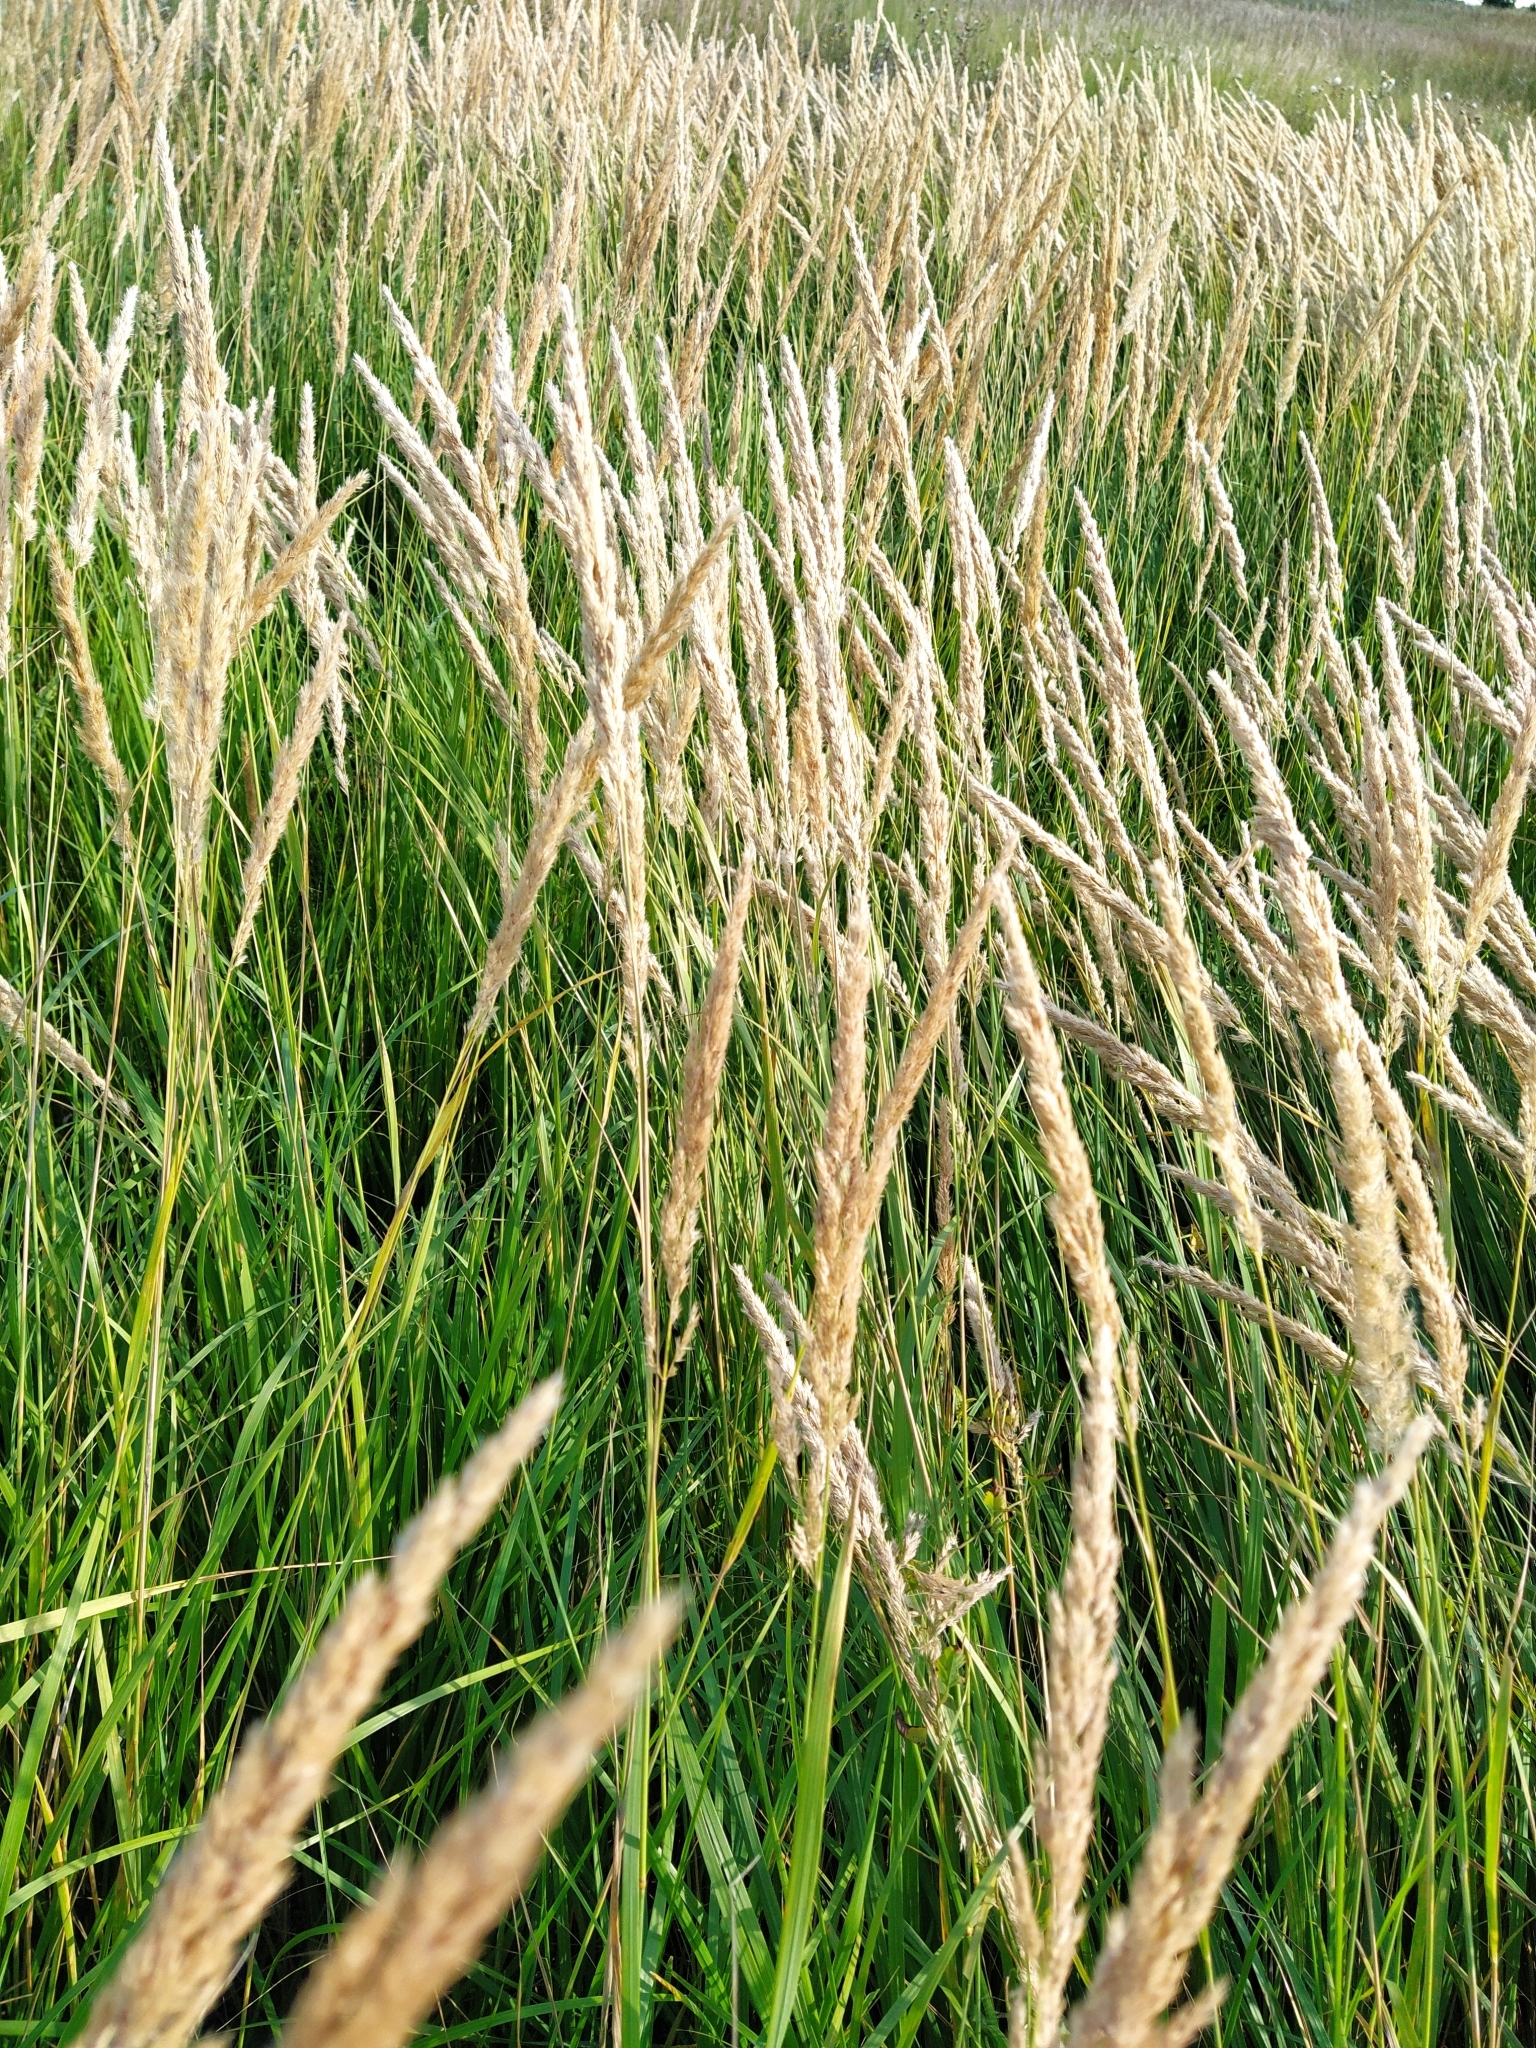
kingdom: Plantae
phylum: Tracheophyta
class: Liliopsida
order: Poales
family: Poaceae
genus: Phalaris
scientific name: Phalaris arundinacea
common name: Reed canary-grass
